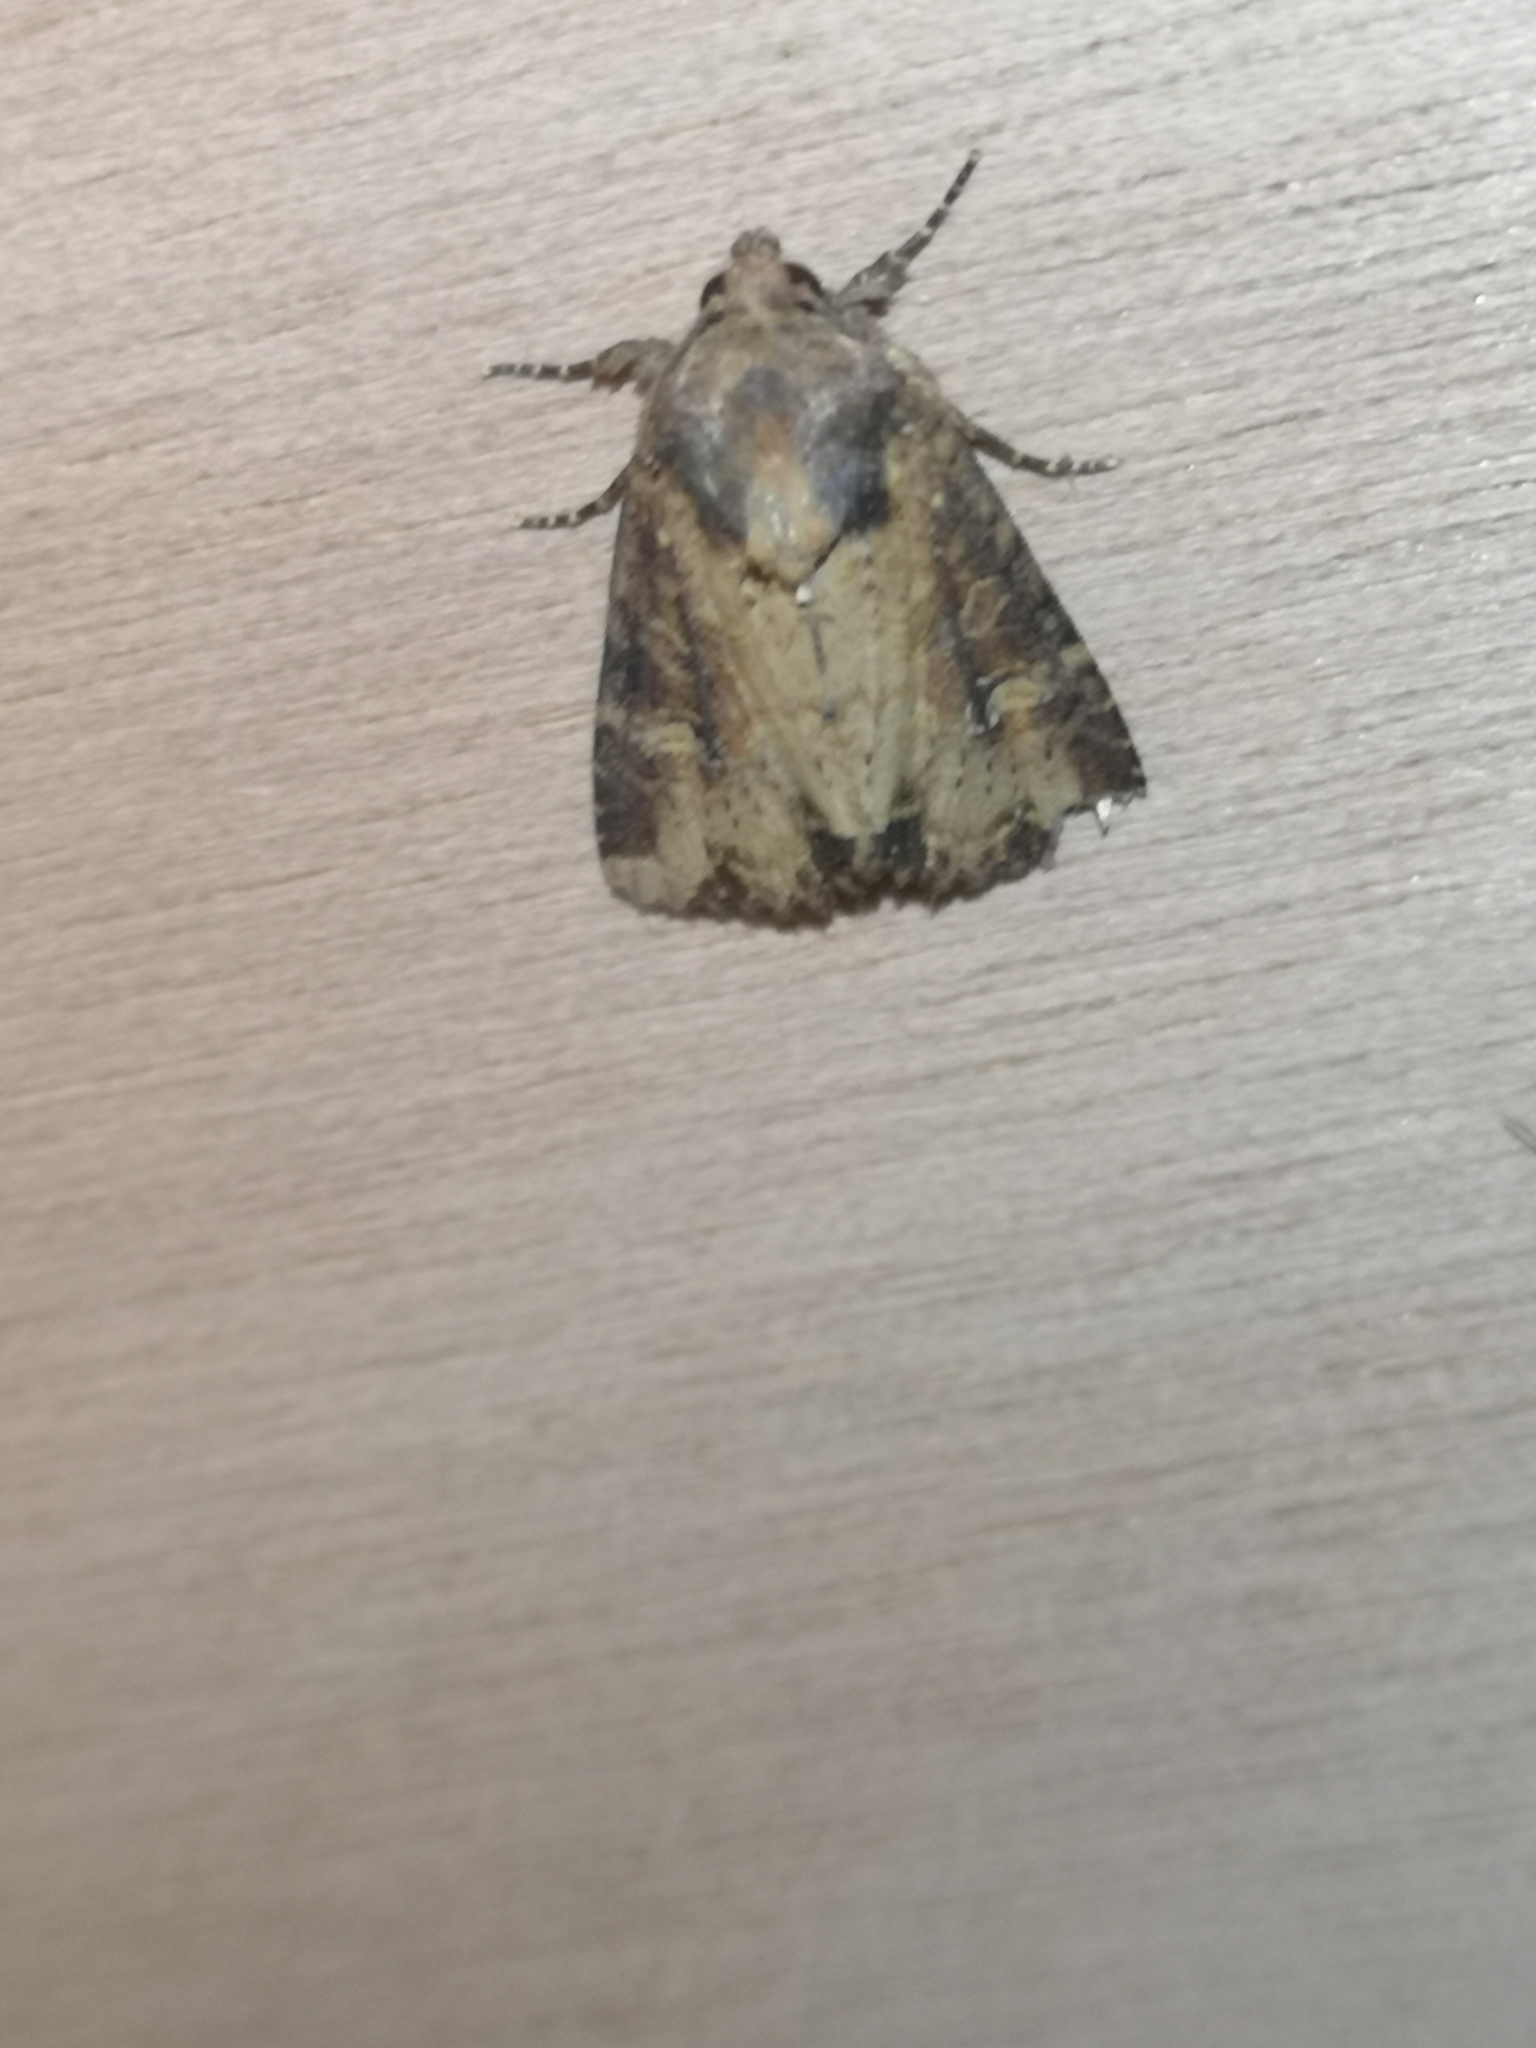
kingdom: Animalia
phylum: Arthropoda
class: Insecta
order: Lepidoptera
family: Noctuidae
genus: Mesapamea
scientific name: Mesapamea
